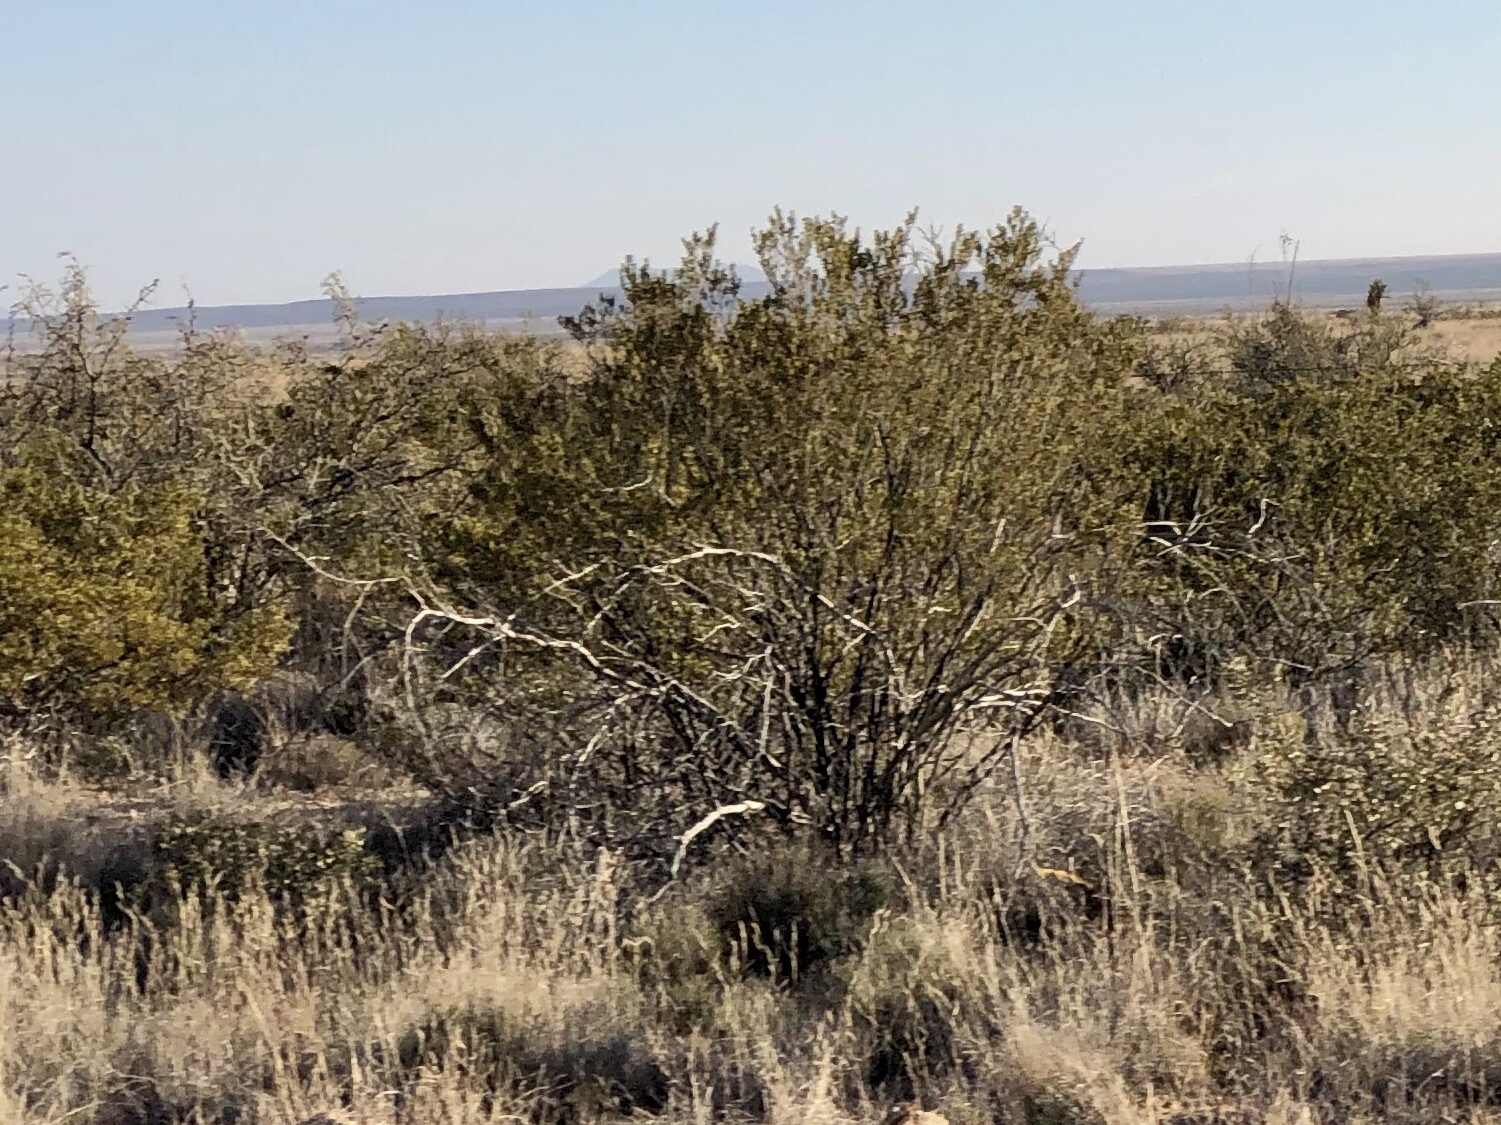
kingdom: Plantae
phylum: Tracheophyta
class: Magnoliopsida
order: Zygophyllales
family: Zygophyllaceae
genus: Larrea
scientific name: Larrea tridentata
